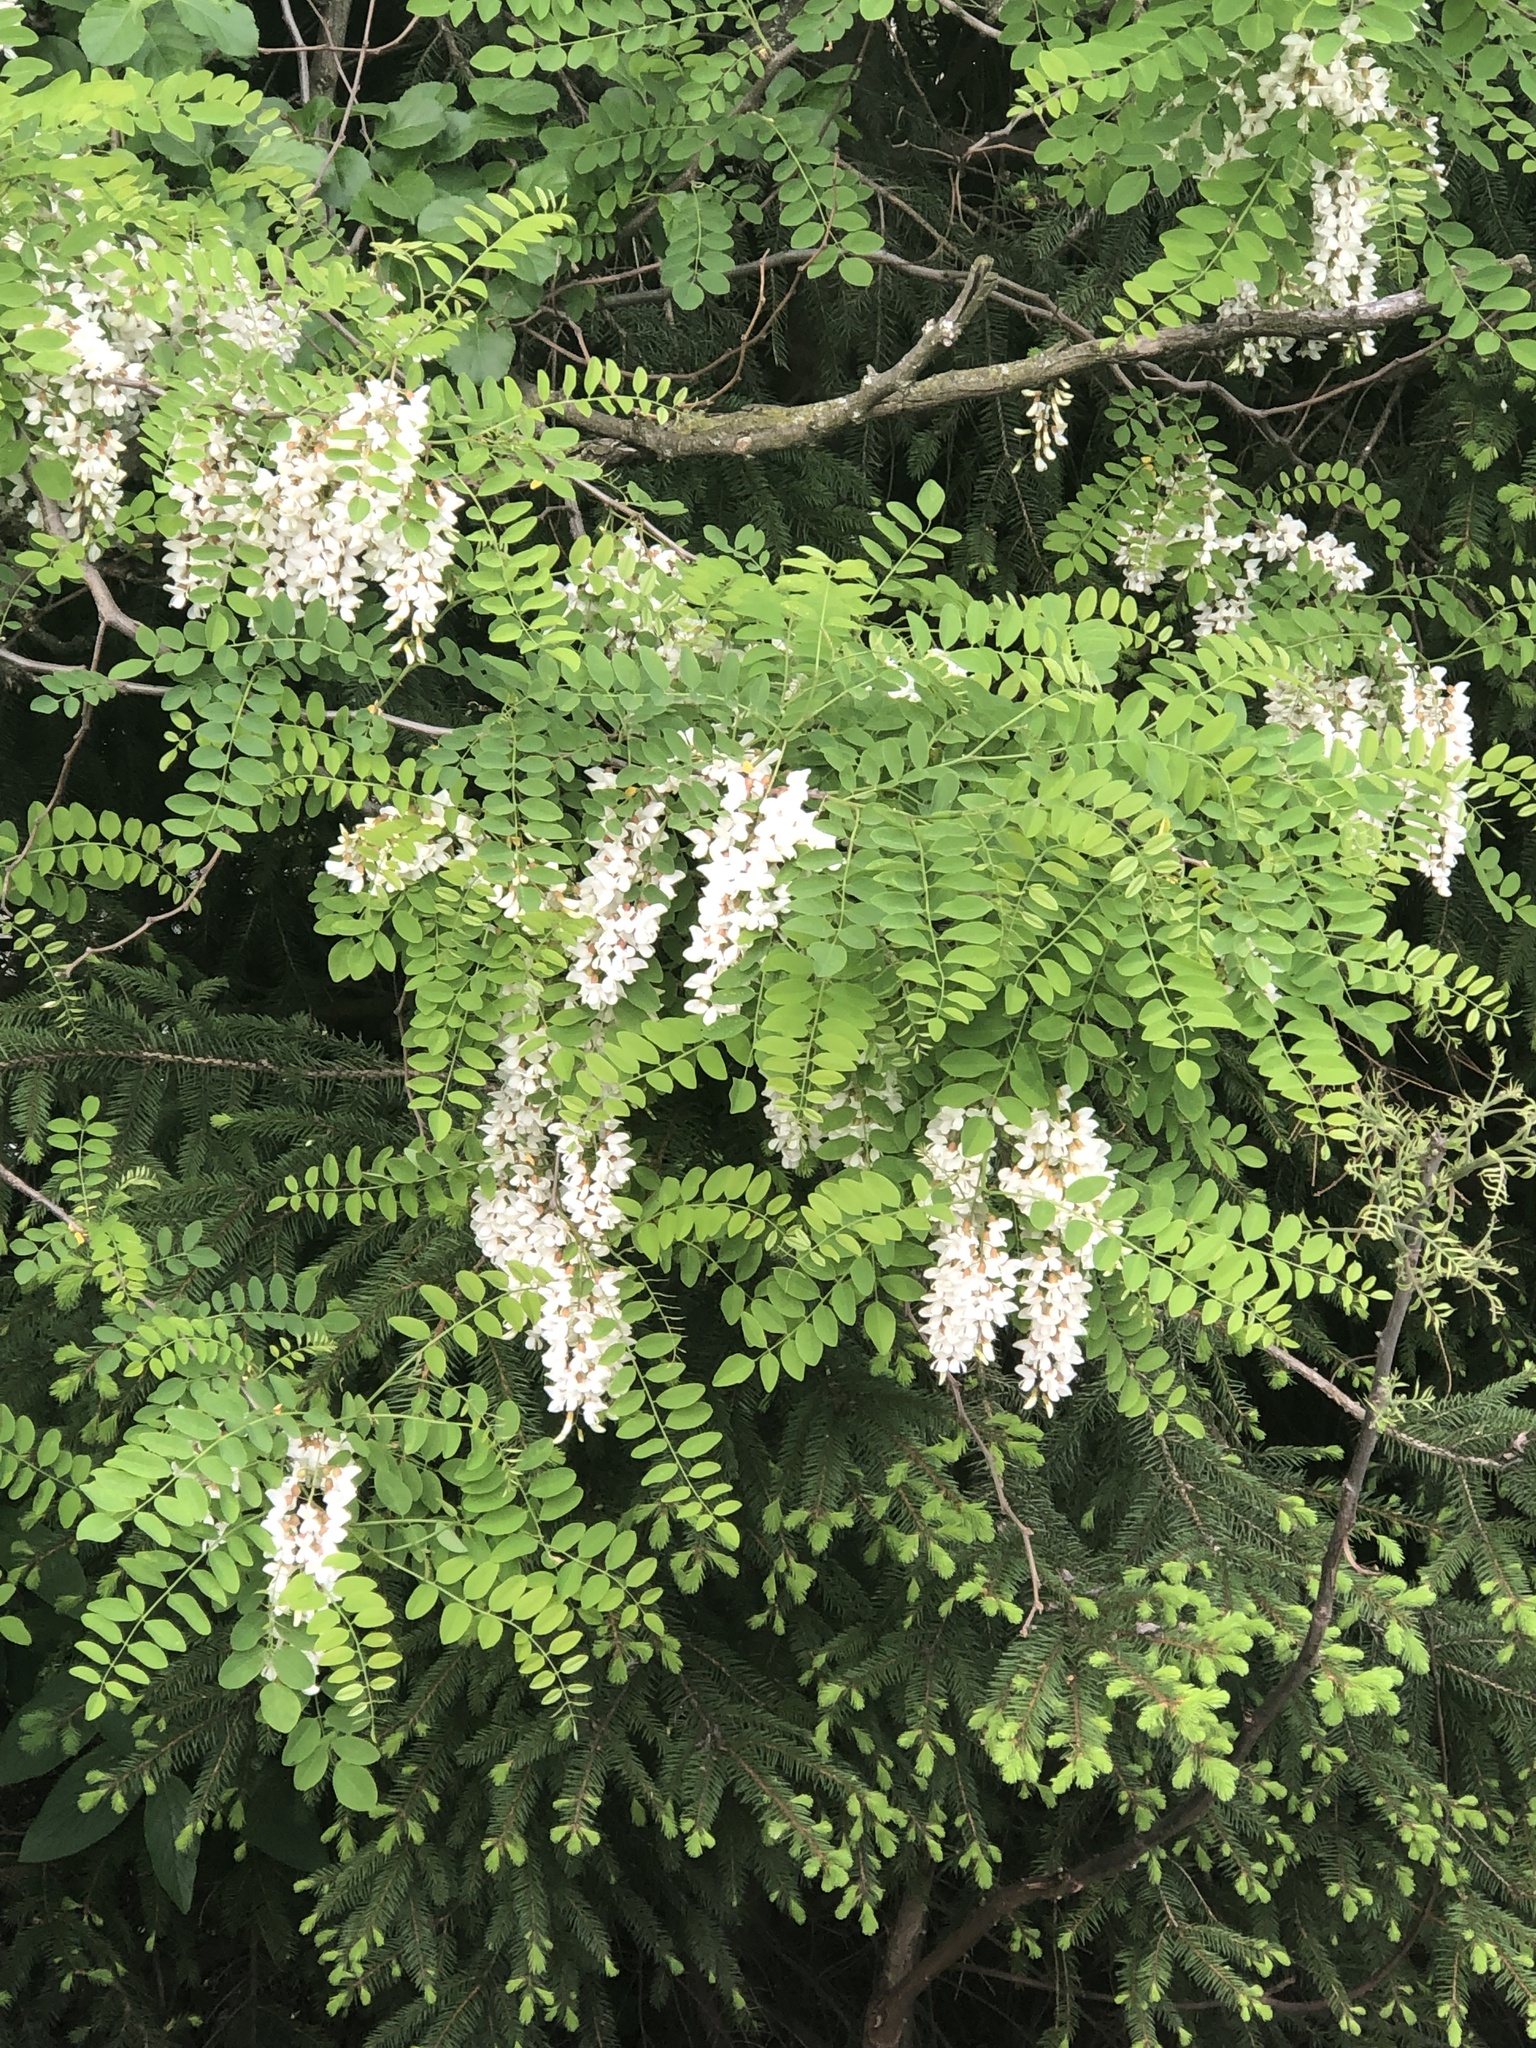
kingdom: Plantae
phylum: Tracheophyta
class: Magnoliopsida
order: Fabales
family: Fabaceae
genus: Robinia
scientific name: Robinia pseudoacacia
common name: Black locust
